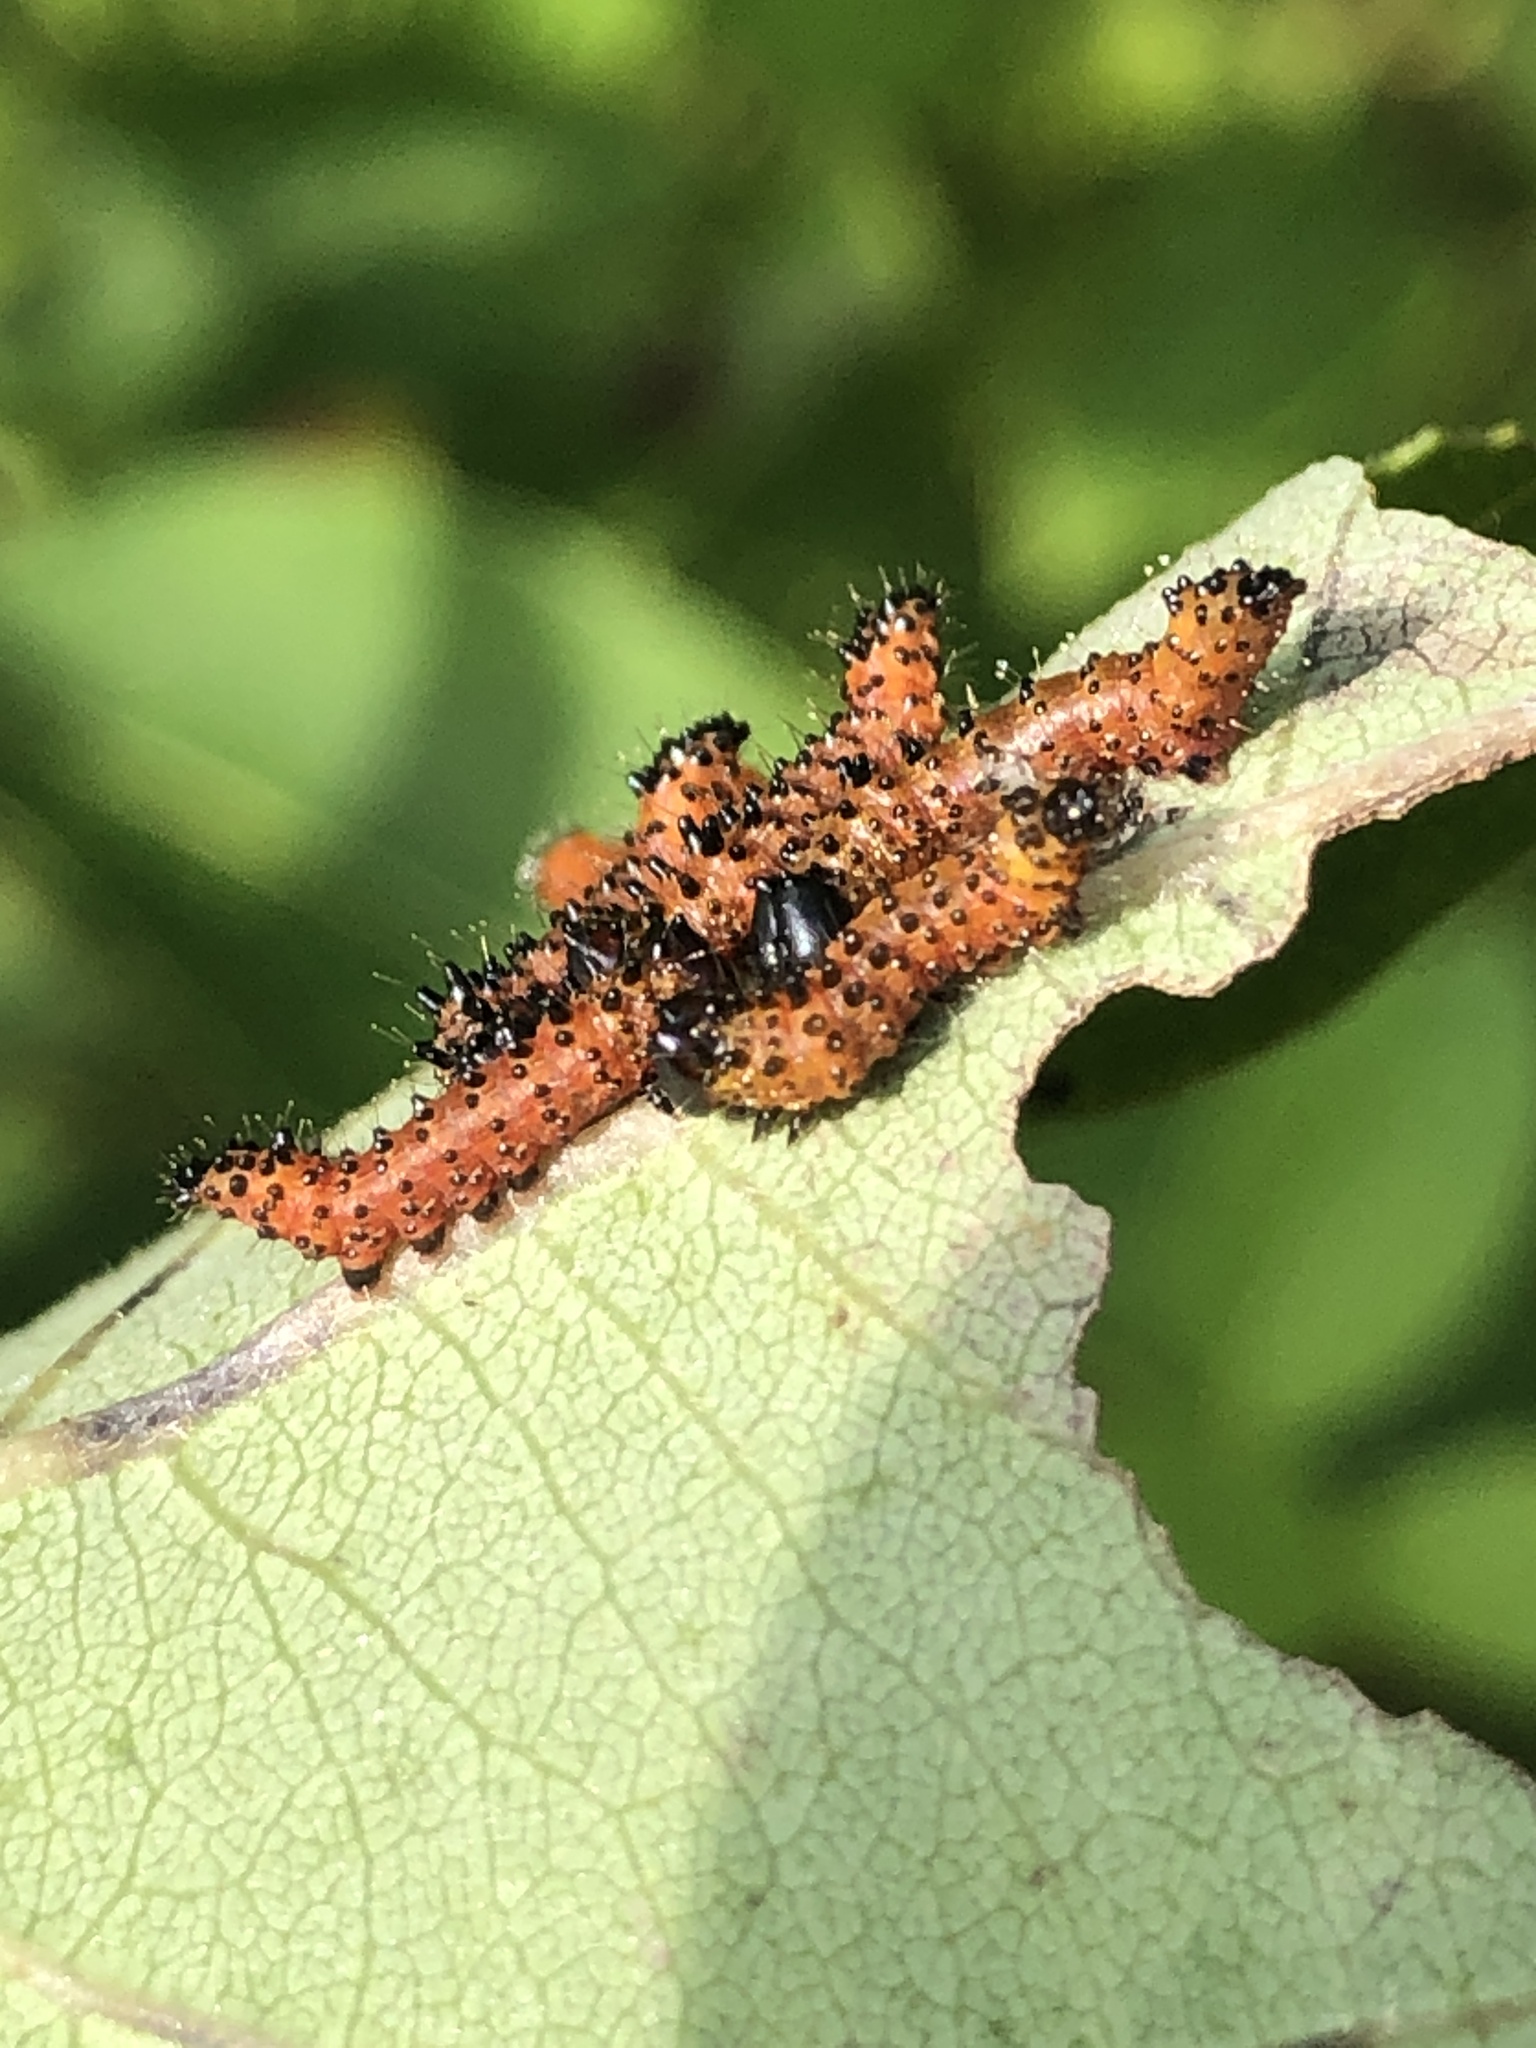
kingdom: Animalia
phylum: Arthropoda
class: Insecta
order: Lepidoptera
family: Notodontidae
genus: Schizura
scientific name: Schizura
